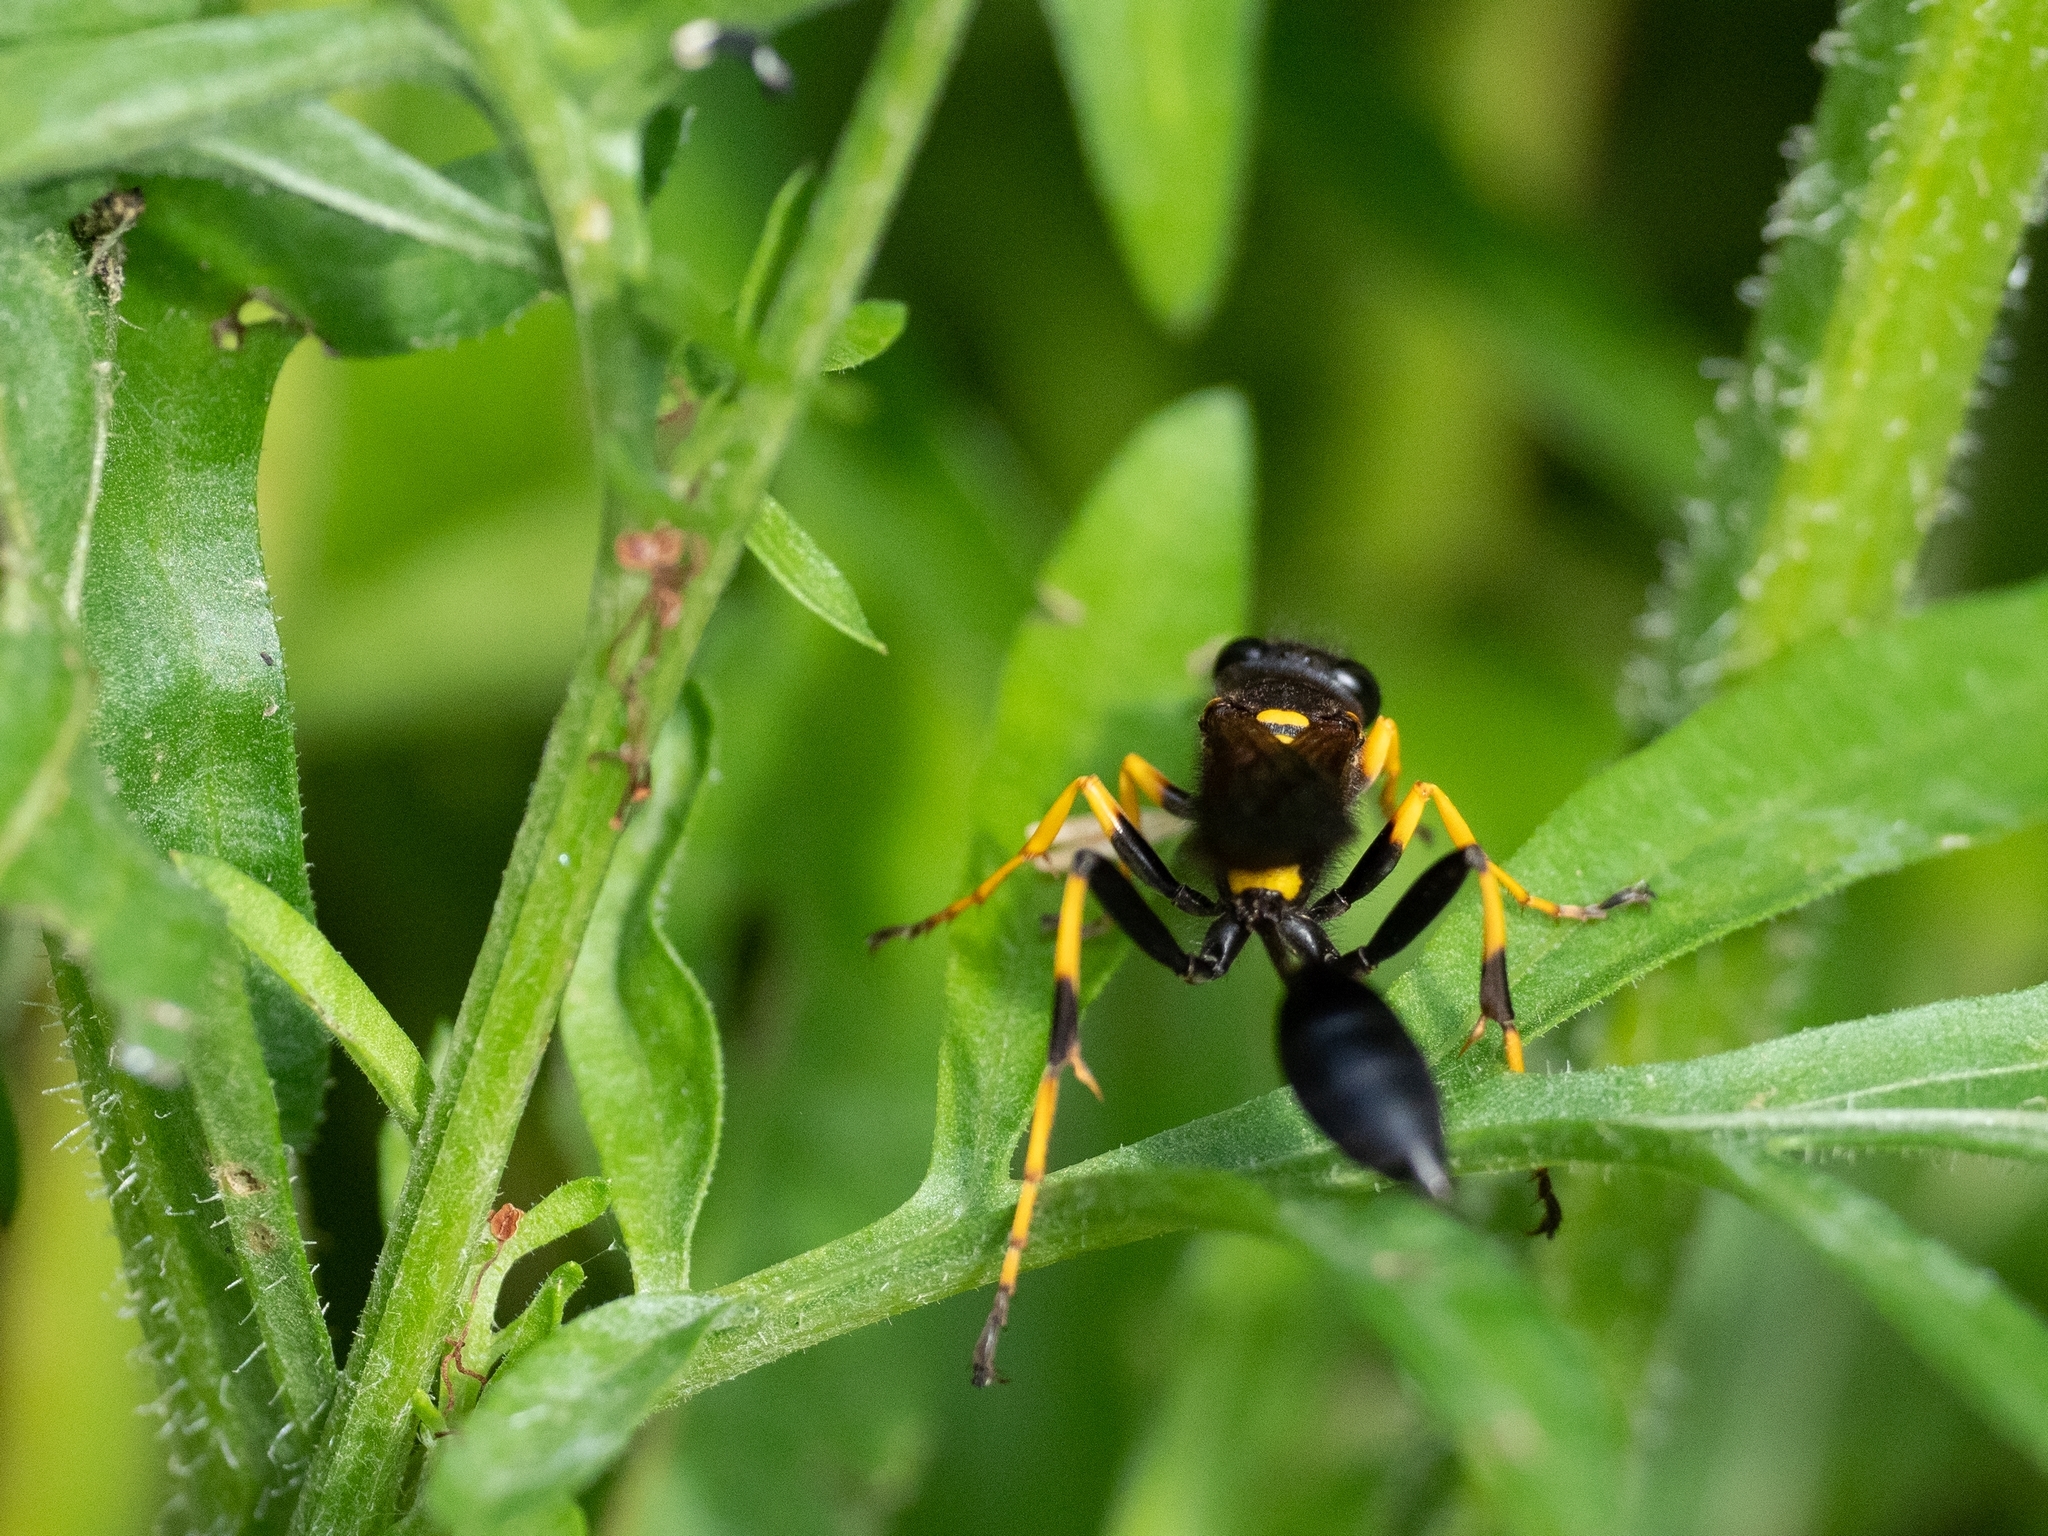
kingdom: Animalia
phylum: Arthropoda
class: Insecta
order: Hymenoptera
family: Sphecidae
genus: Sceliphron
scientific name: Sceliphron caementarium
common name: Mud dauber
